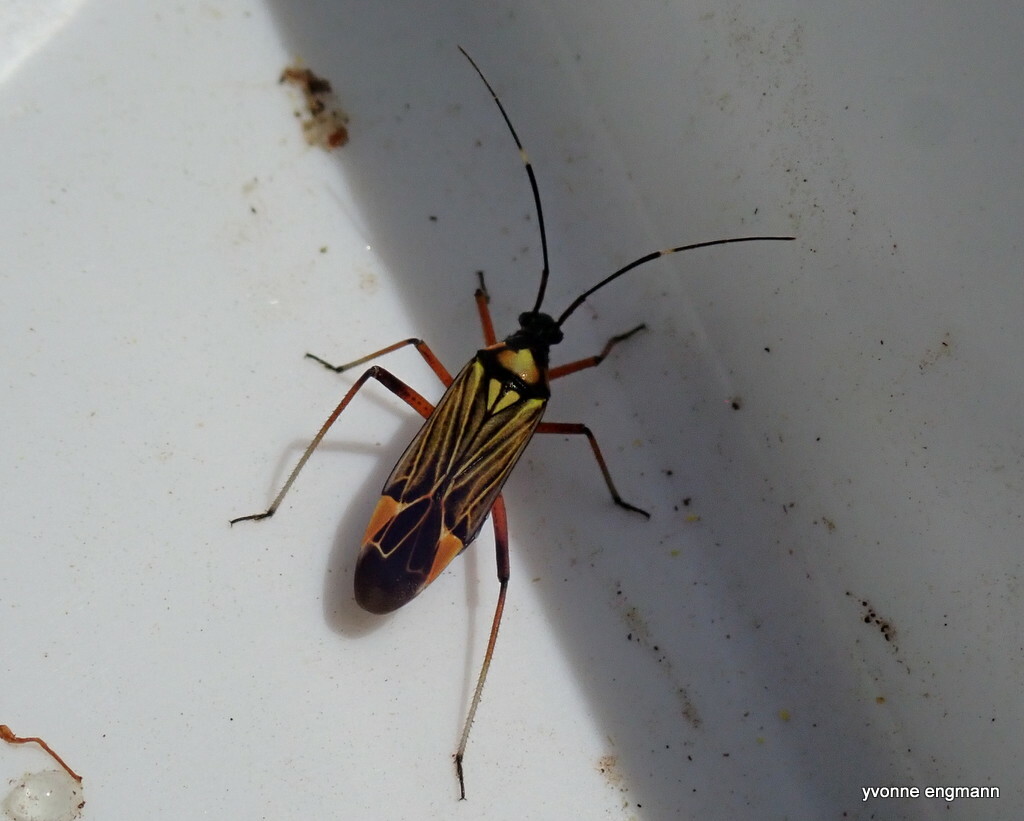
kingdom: Animalia
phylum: Arthropoda
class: Insecta
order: Hemiptera
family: Miridae
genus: Miris
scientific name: Miris striatus
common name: Fine streaked bugkin
